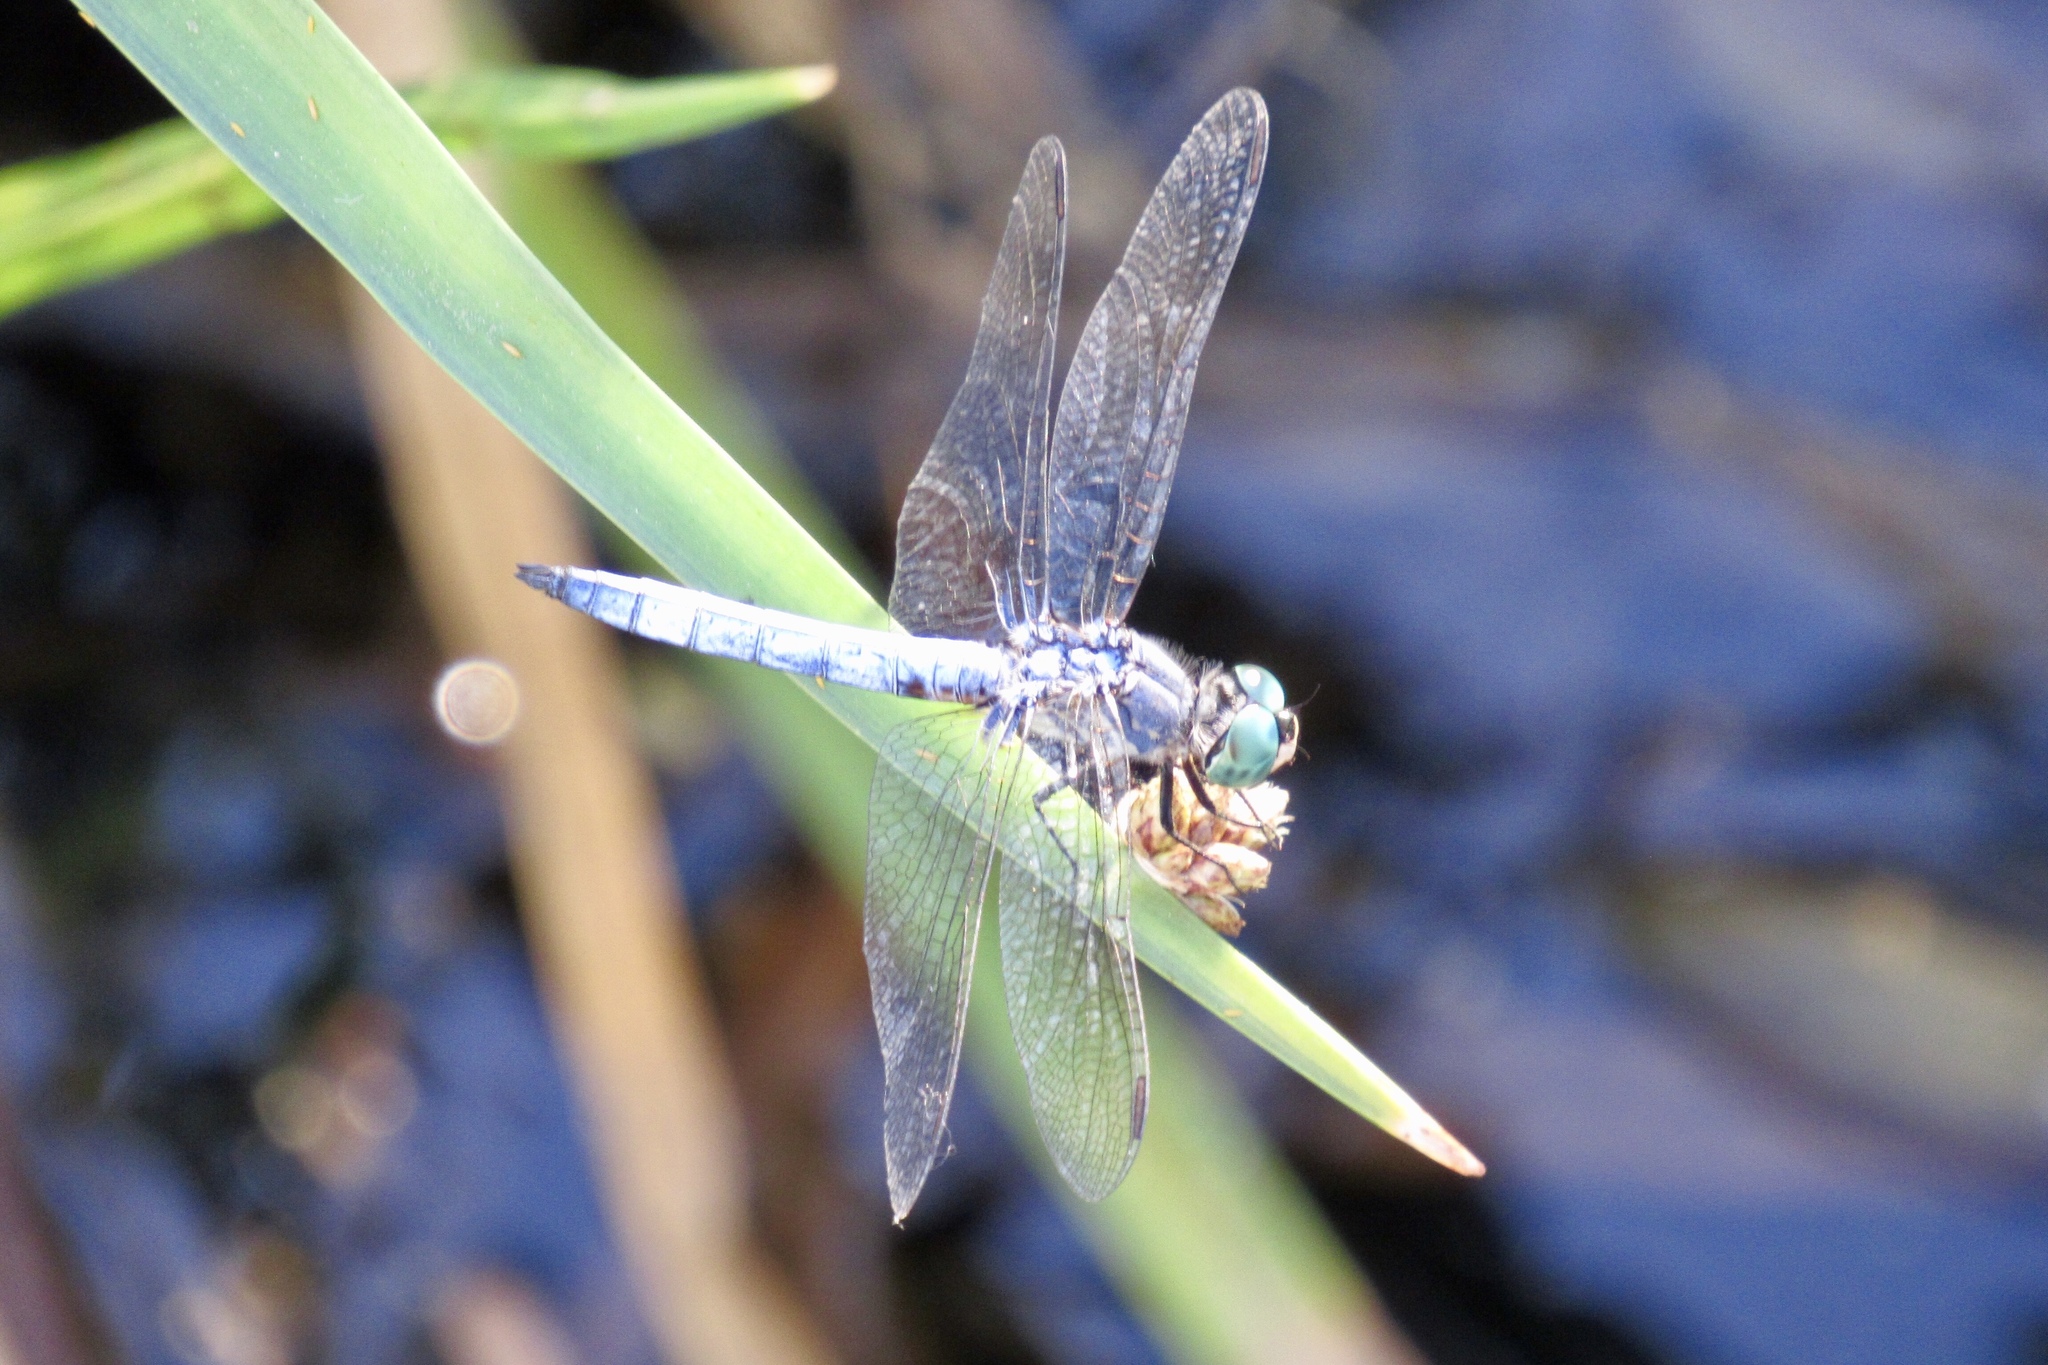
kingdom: Animalia
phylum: Arthropoda
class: Insecta
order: Odonata
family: Libellulidae
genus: Pachydiplax
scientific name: Pachydiplax longipennis
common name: Blue dasher
